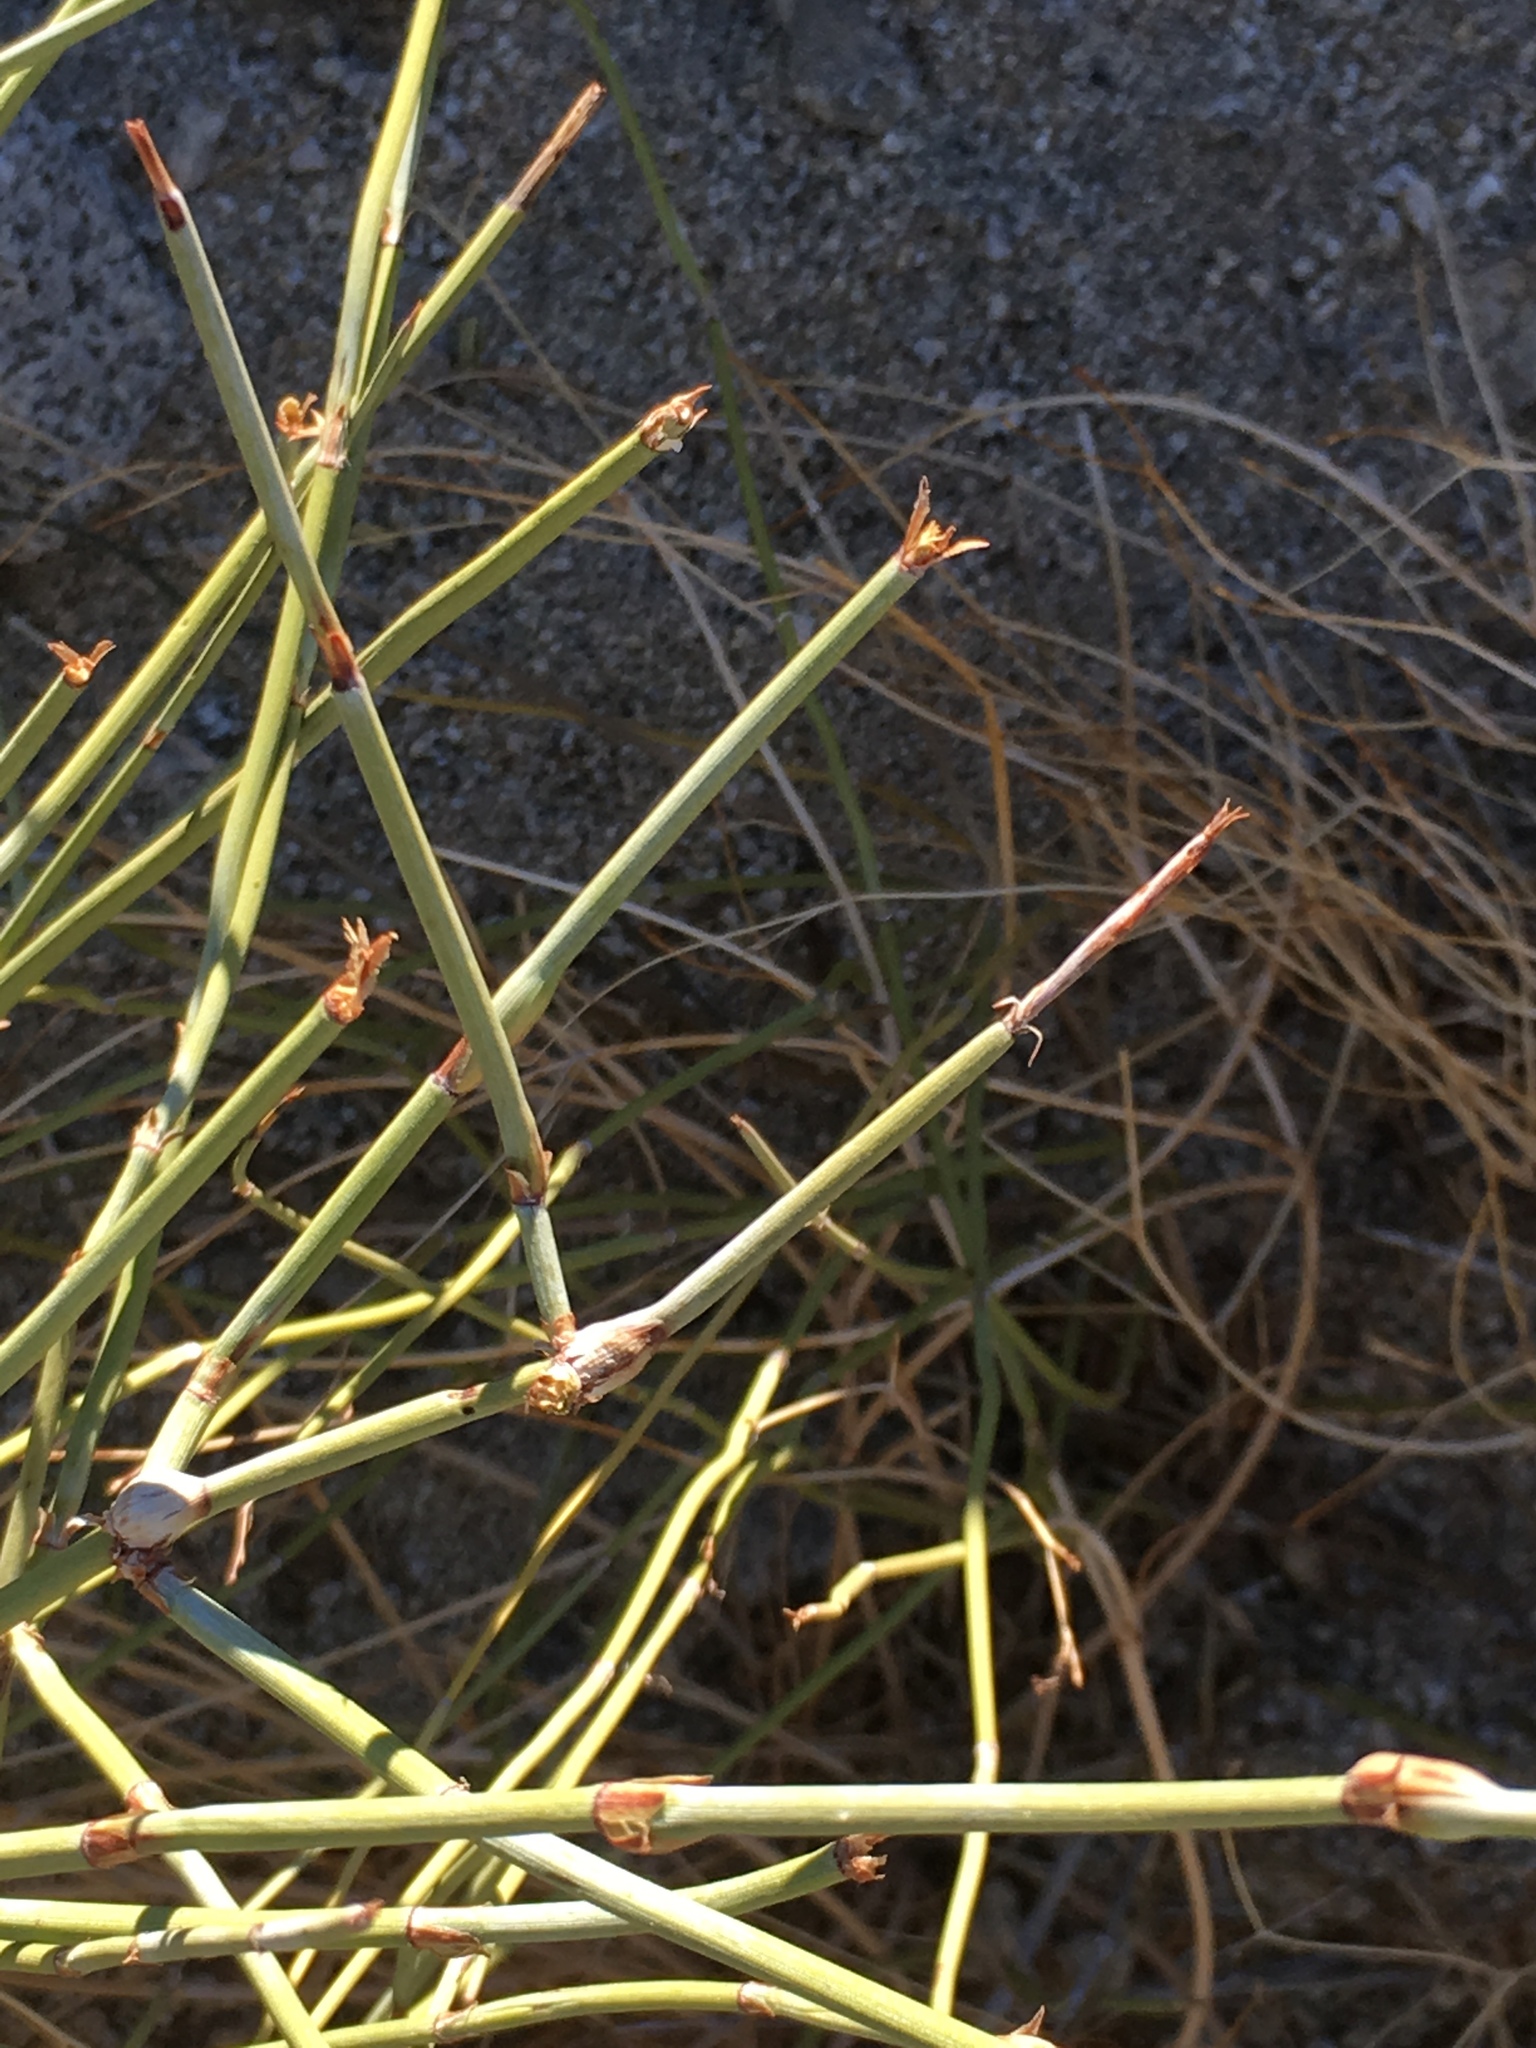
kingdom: Plantae
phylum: Tracheophyta
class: Gnetopsida
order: Ephedrales
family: Ephedraceae
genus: Ephedra
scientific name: Ephedra californica
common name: California ephedra
